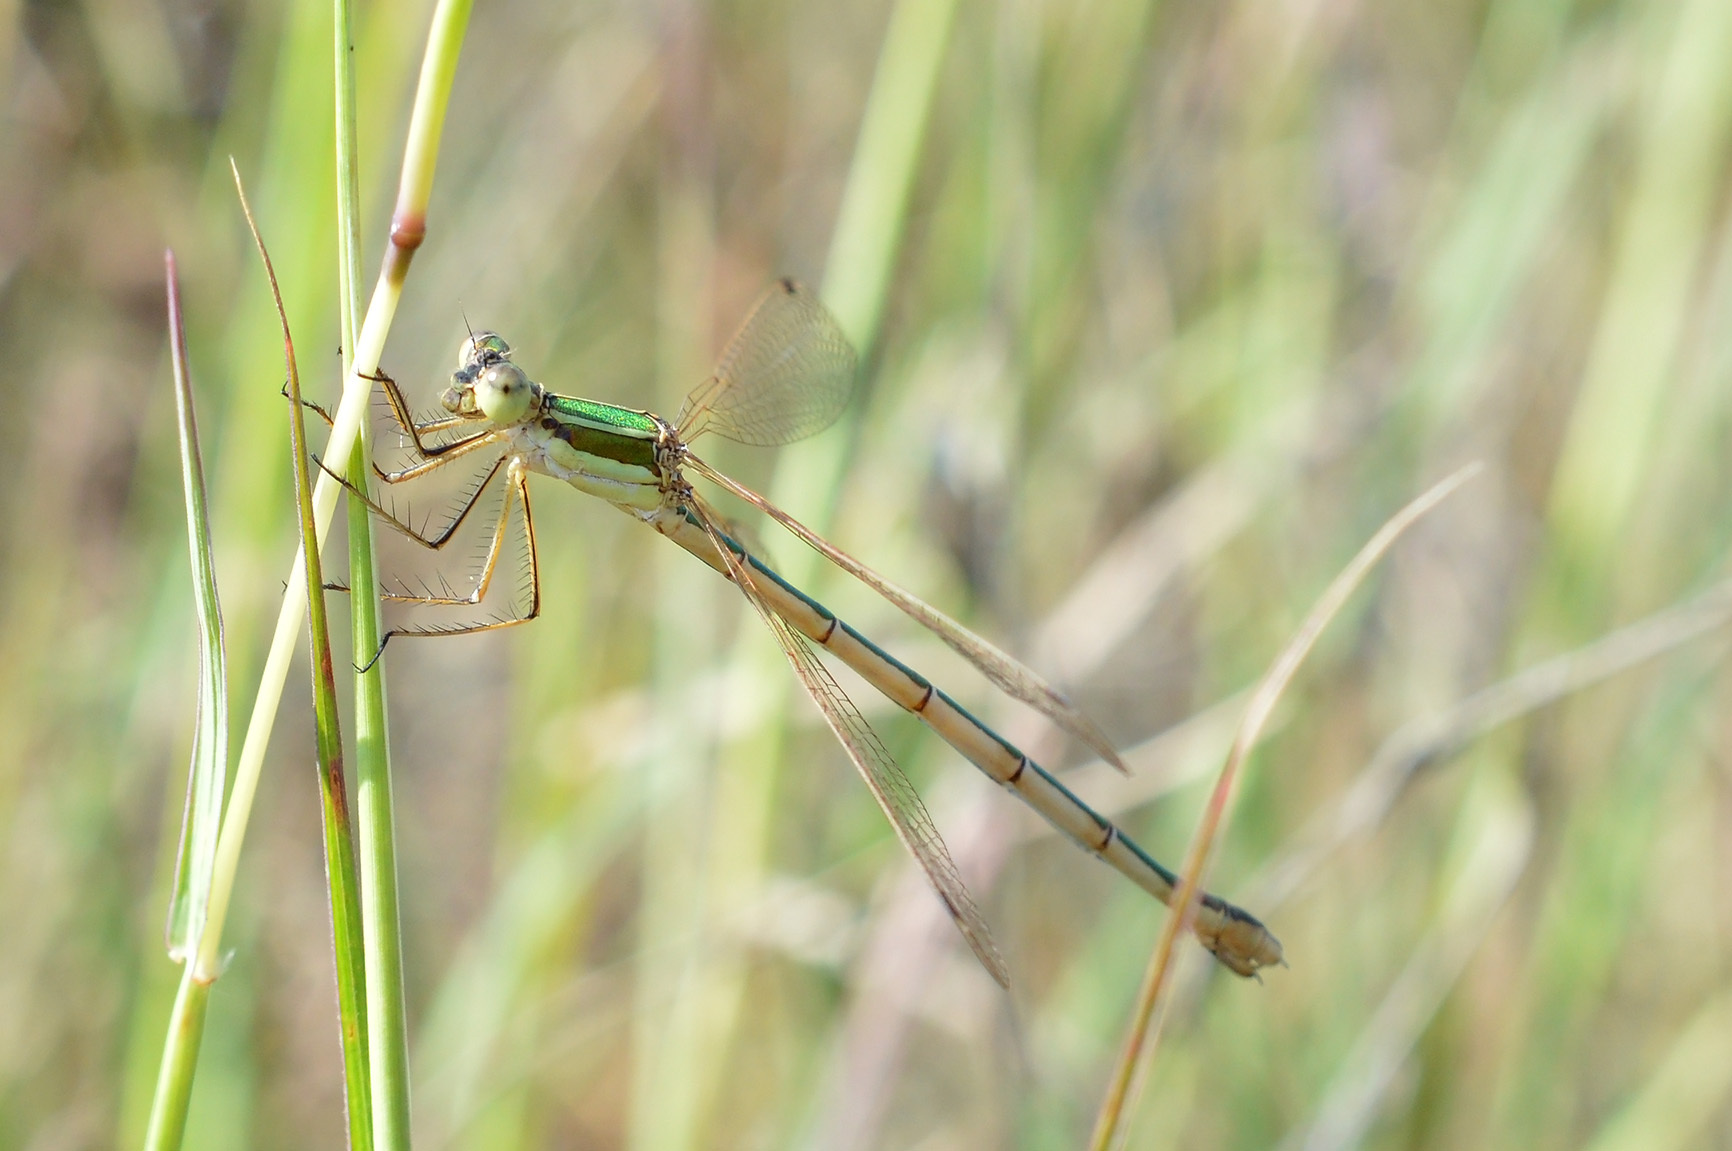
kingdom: Animalia
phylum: Arthropoda
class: Insecta
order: Odonata
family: Lestidae
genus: Lestes
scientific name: Lestes barbarus
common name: Migrant spreadwing
